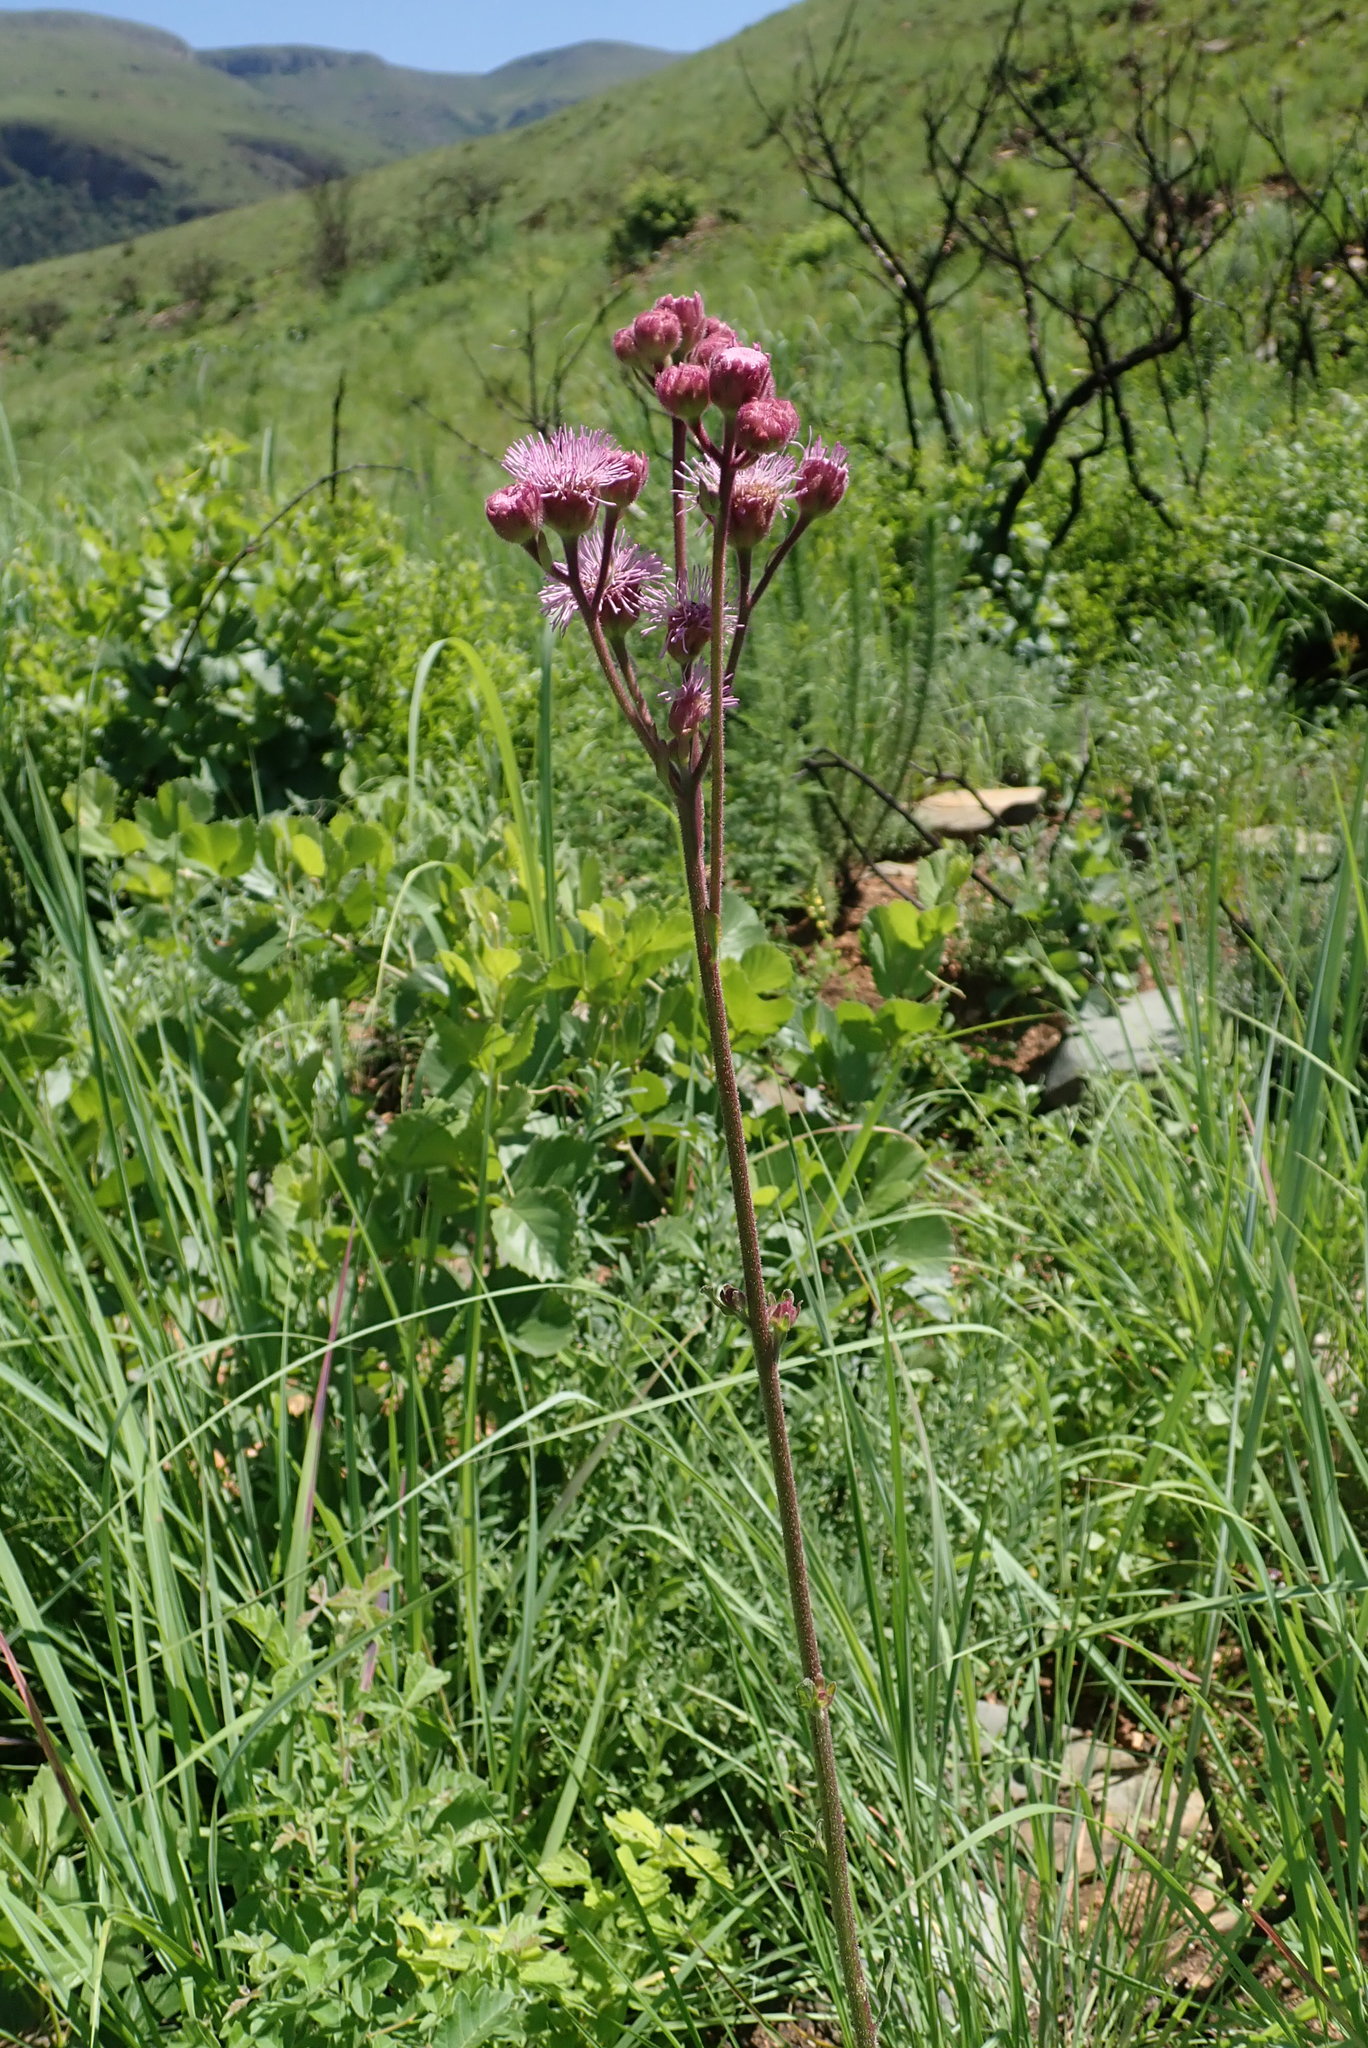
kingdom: Plantae
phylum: Tracheophyta
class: Magnoliopsida
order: Asterales
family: Asteraceae
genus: Campuloclinium
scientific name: Campuloclinium macrocephalum
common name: Pompomweed
